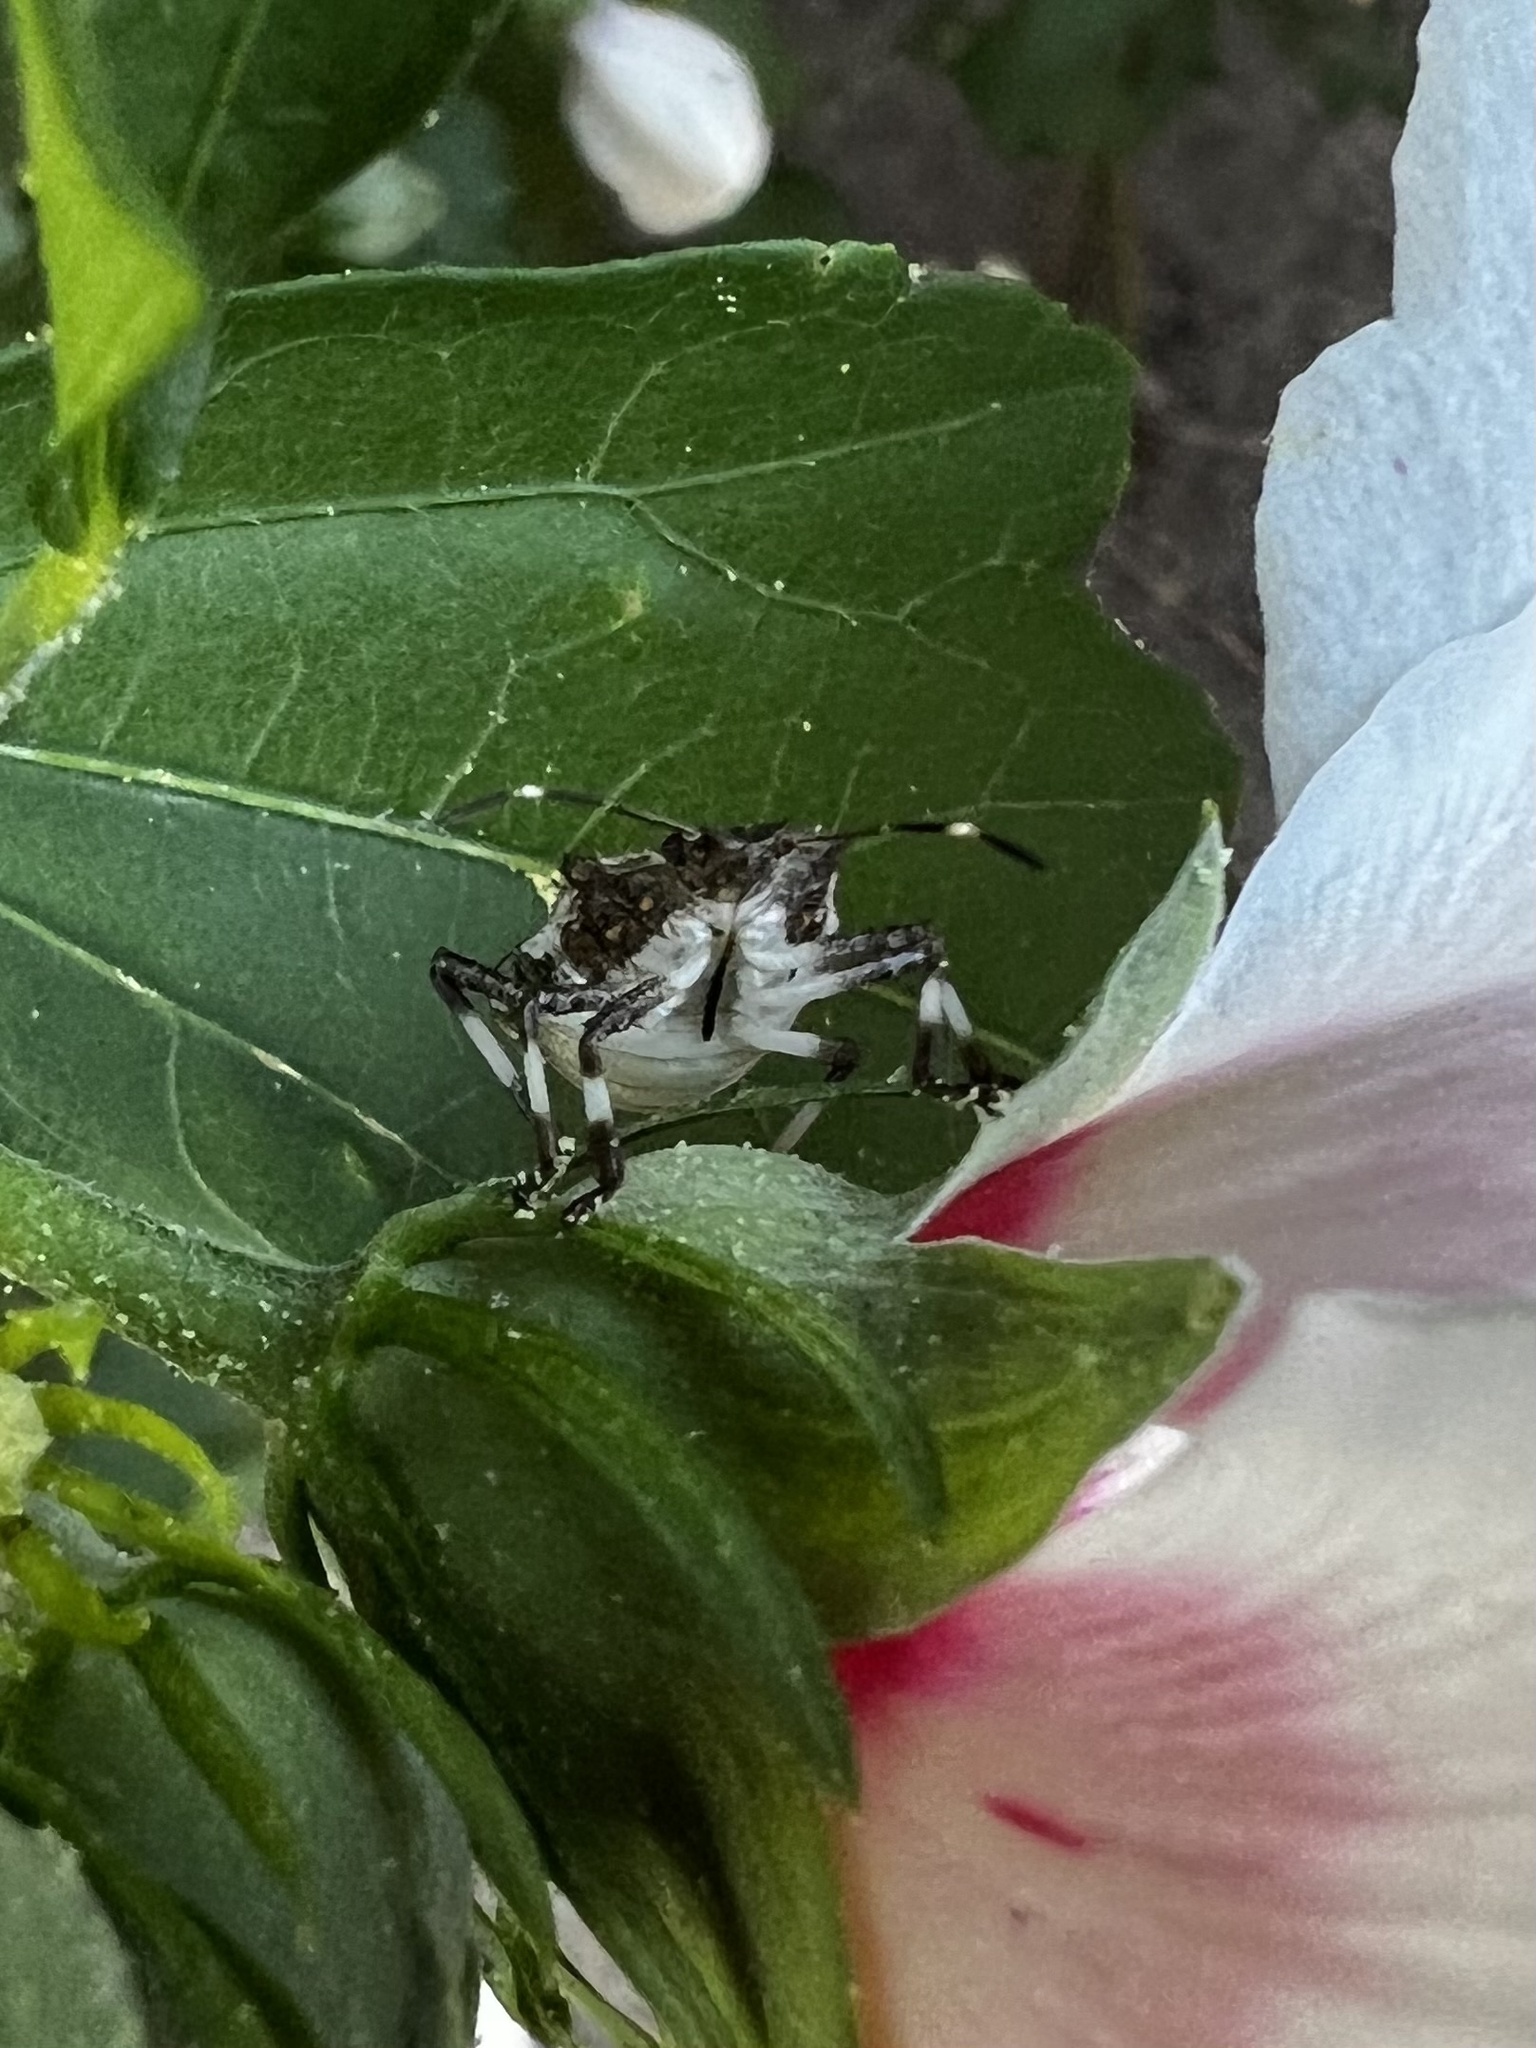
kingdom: Animalia
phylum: Arthropoda
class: Insecta
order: Hemiptera
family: Pentatomidae
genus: Halyomorpha
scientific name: Halyomorpha halys
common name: Brown marmorated stink bug
